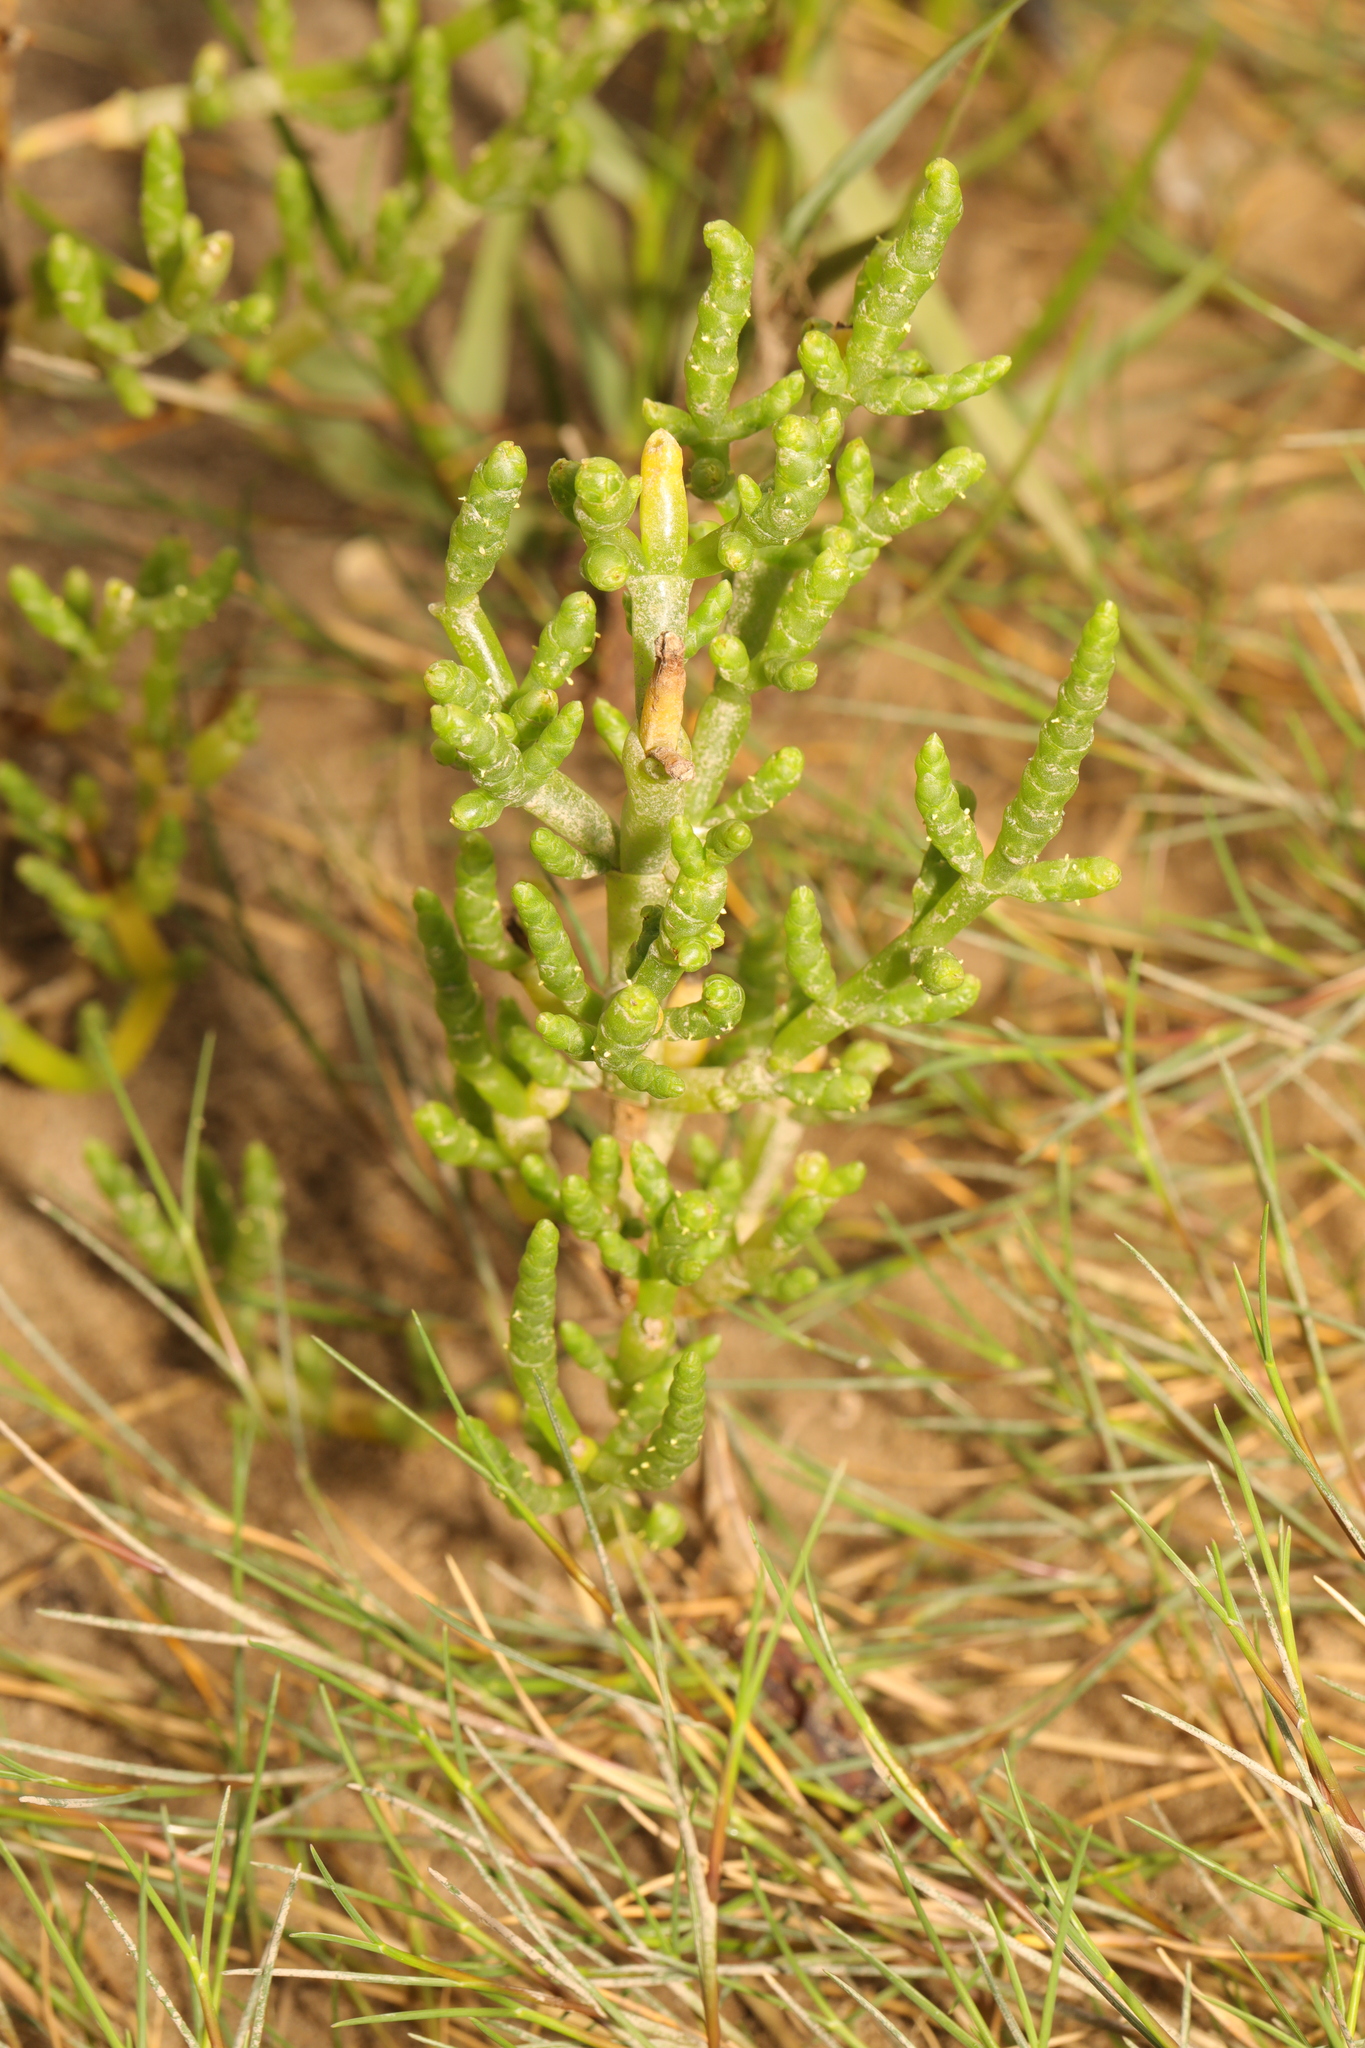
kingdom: Plantae
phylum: Tracheophyta
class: Magnoliopsida
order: Caryophyllales
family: Amaranthaceae
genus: Salicornia
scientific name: Salicornia europaea
